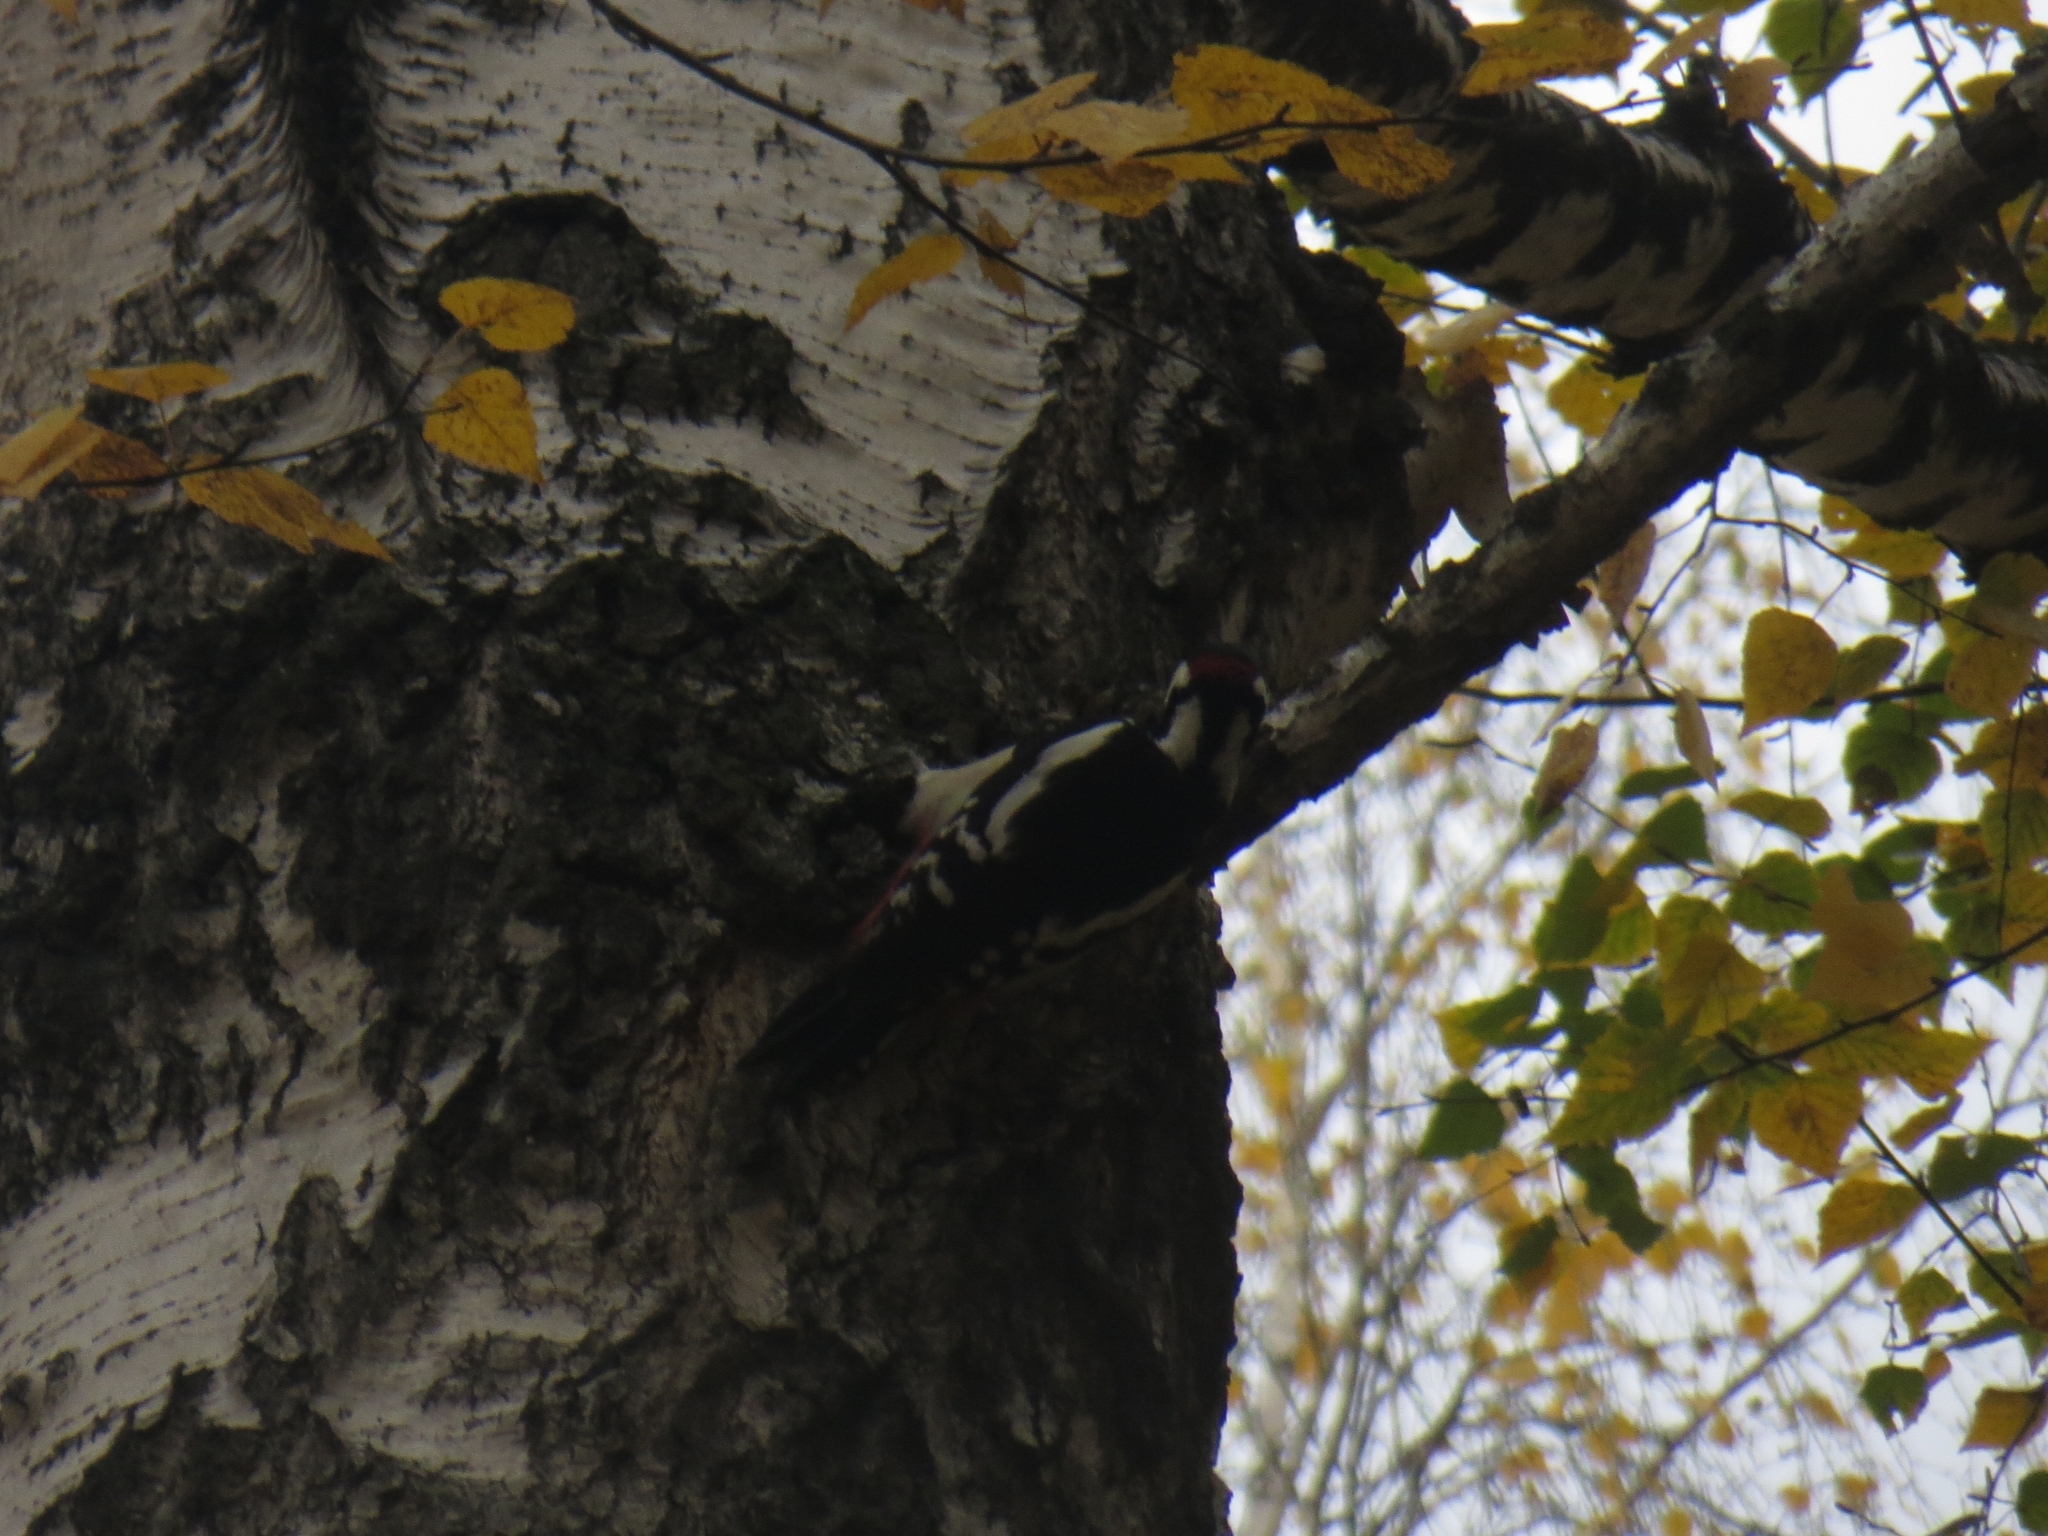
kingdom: Animalia
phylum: Chordata
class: Aves
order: Piciformes
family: Picidae
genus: Dendrocopos
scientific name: Dendrocopos major
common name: Great spotted woodpecker
